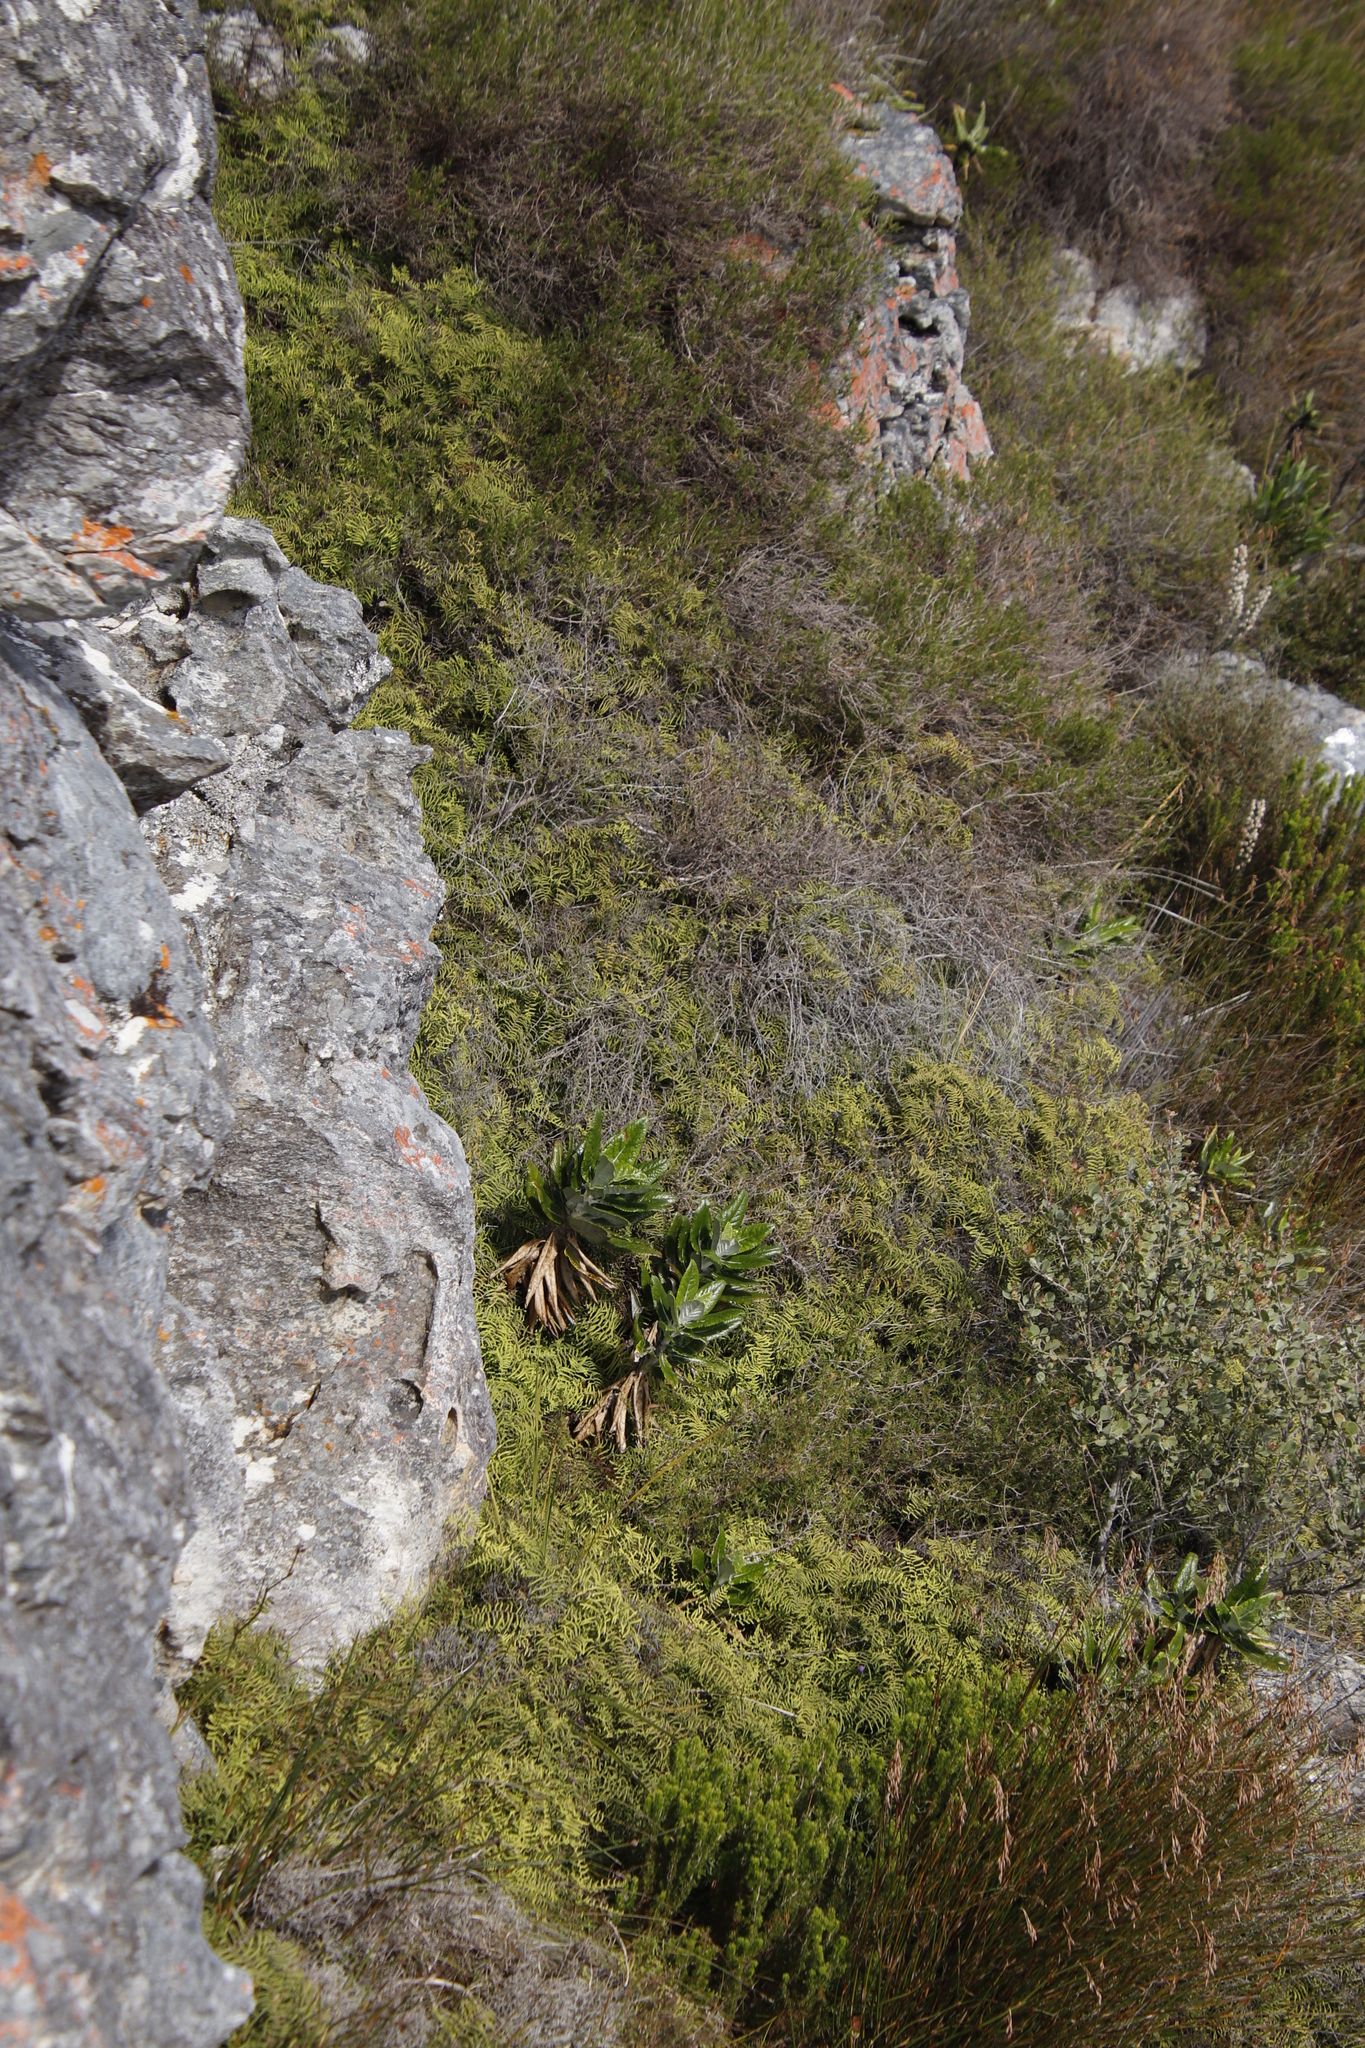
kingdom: Plantae
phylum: Tracheophyta
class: Polypodiopsida
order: Gleicheniales
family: Gleicheniaceae
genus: Gleichenia
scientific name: Gleichenia polypodioides
